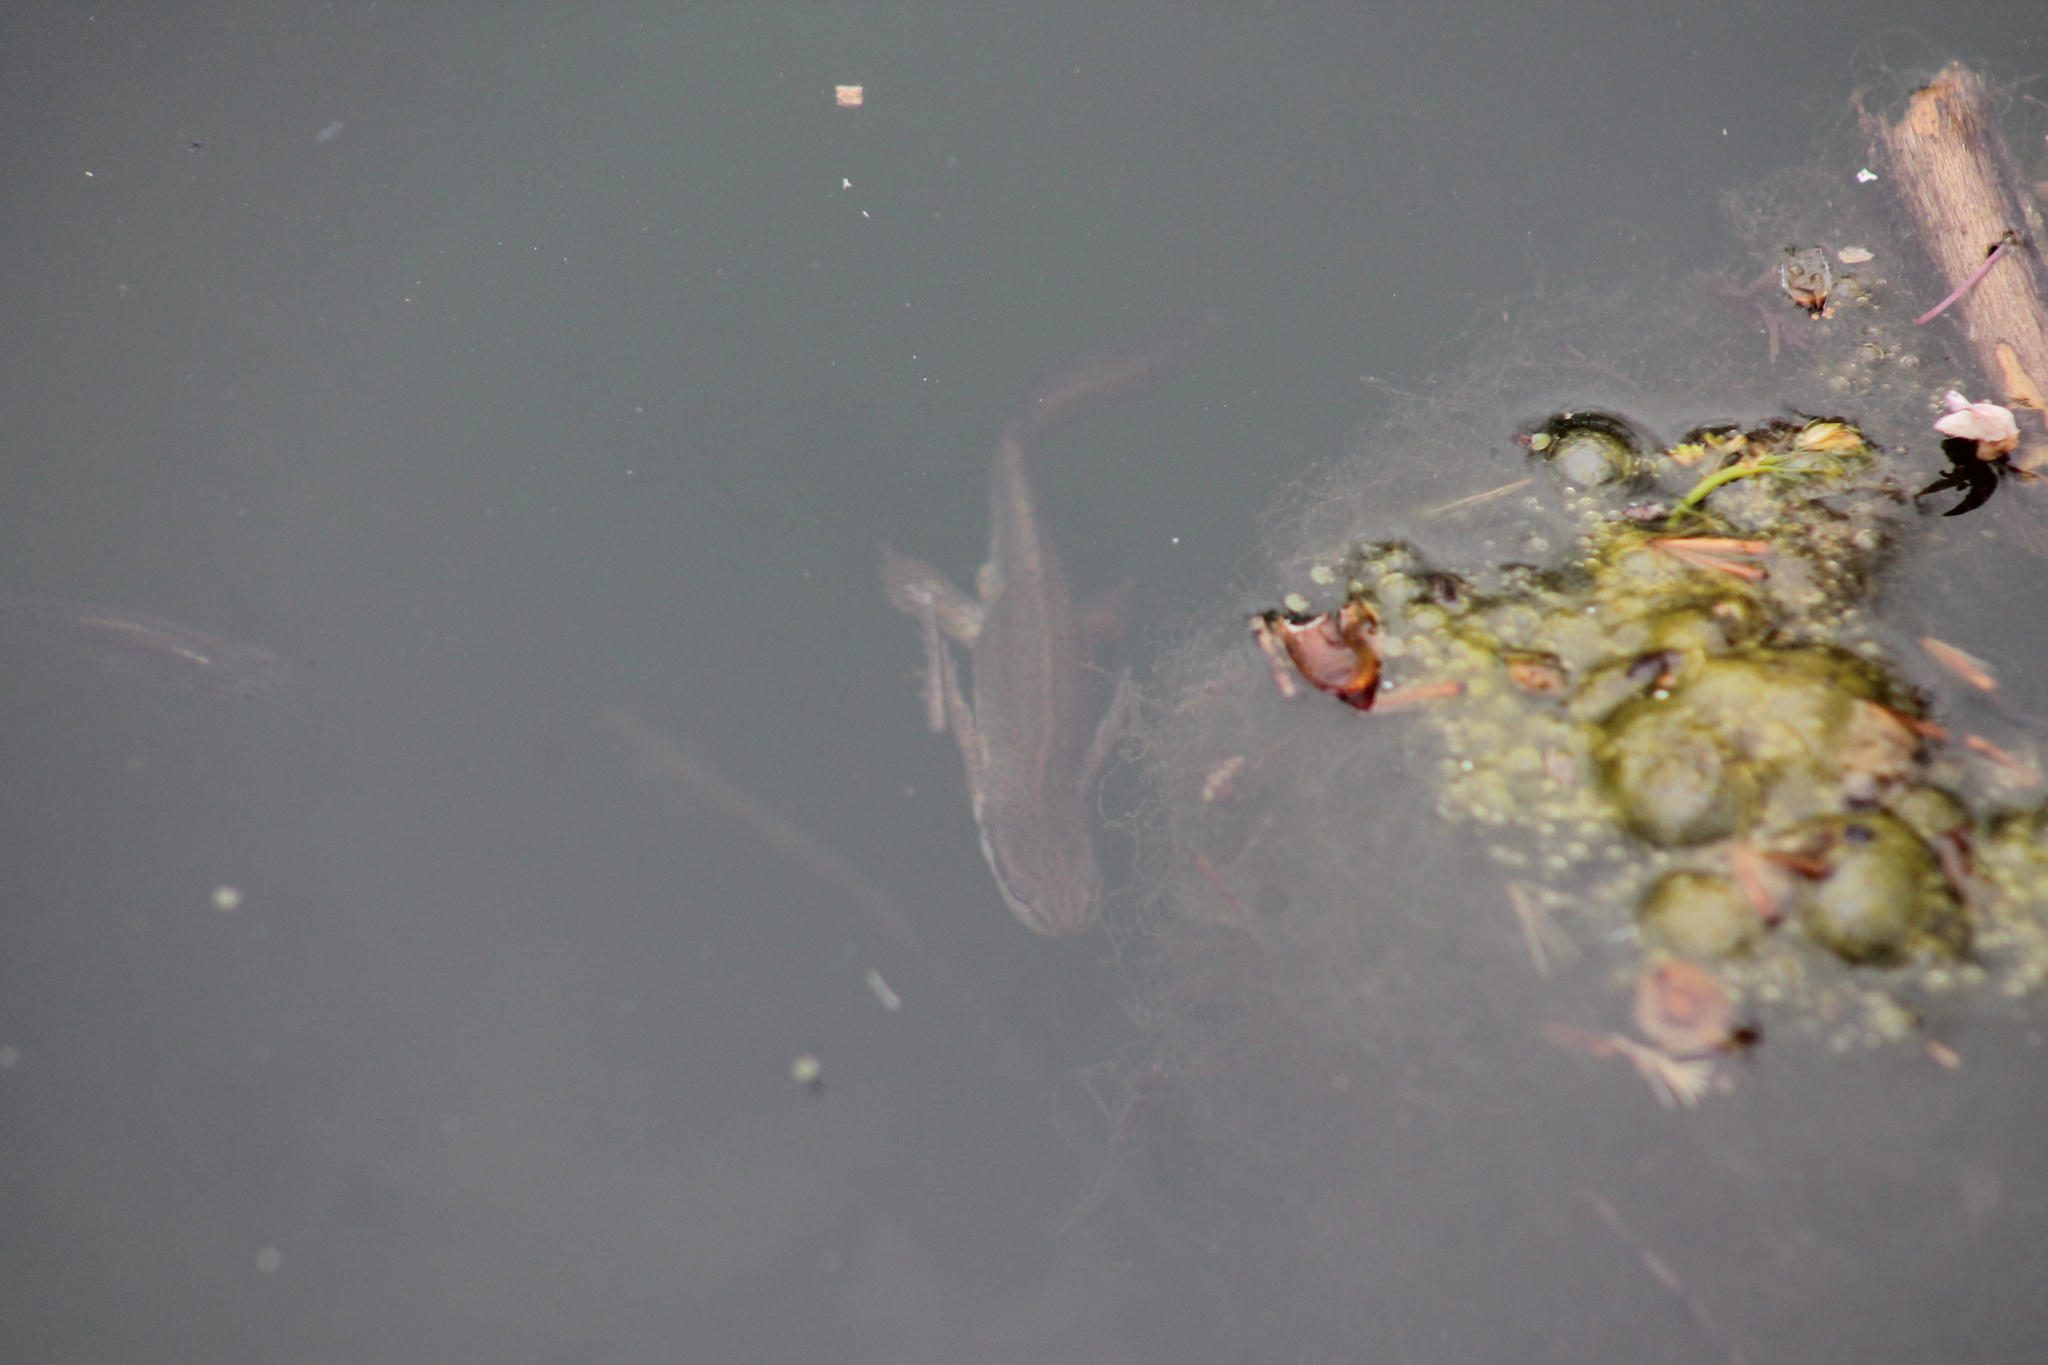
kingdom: Animalia
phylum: Chordata
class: Amphibia
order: Caudata
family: Salamandridae
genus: Notophthalmus
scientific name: Notophthalmus viridescens
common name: Eastern newt
